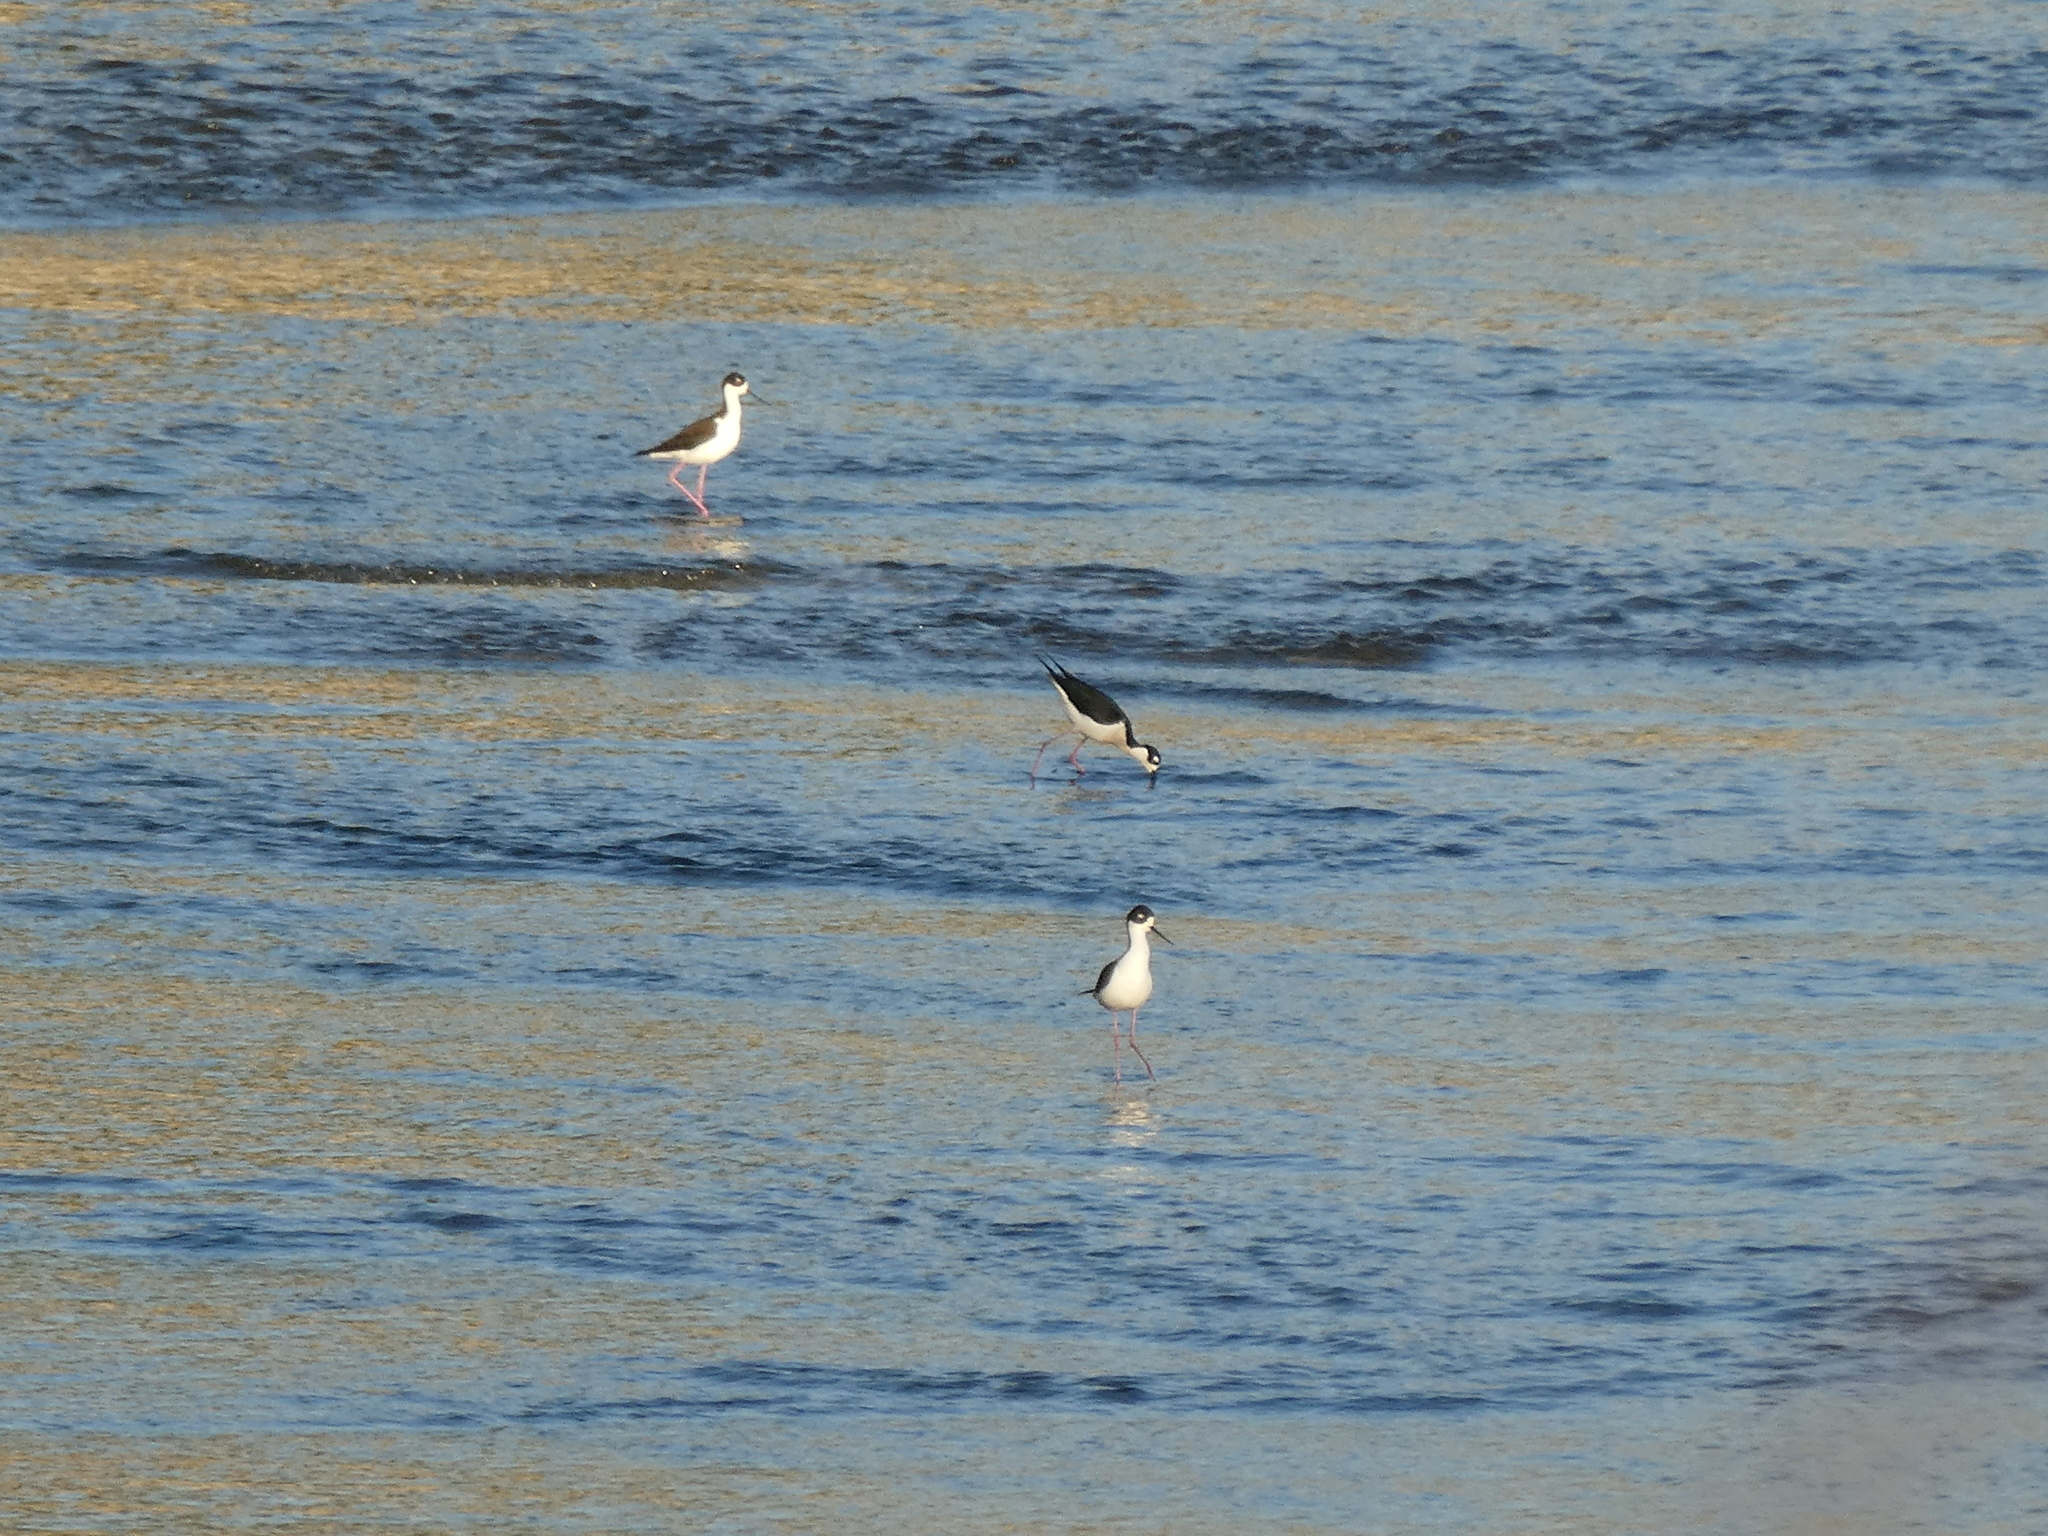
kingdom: Animalia
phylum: Chordata
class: Aves
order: Charadriiformes
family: Recurvirostridae
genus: Himantopus
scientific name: Himantopus mexicanus
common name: Black-necked stilt
